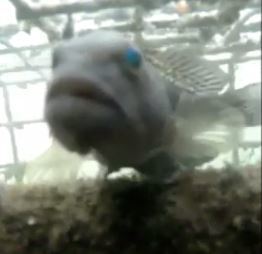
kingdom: Animalia
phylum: Chordata
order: Perciformes
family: Serranidae
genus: Centropristis
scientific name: Centropristis striata
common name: Black sea bass
